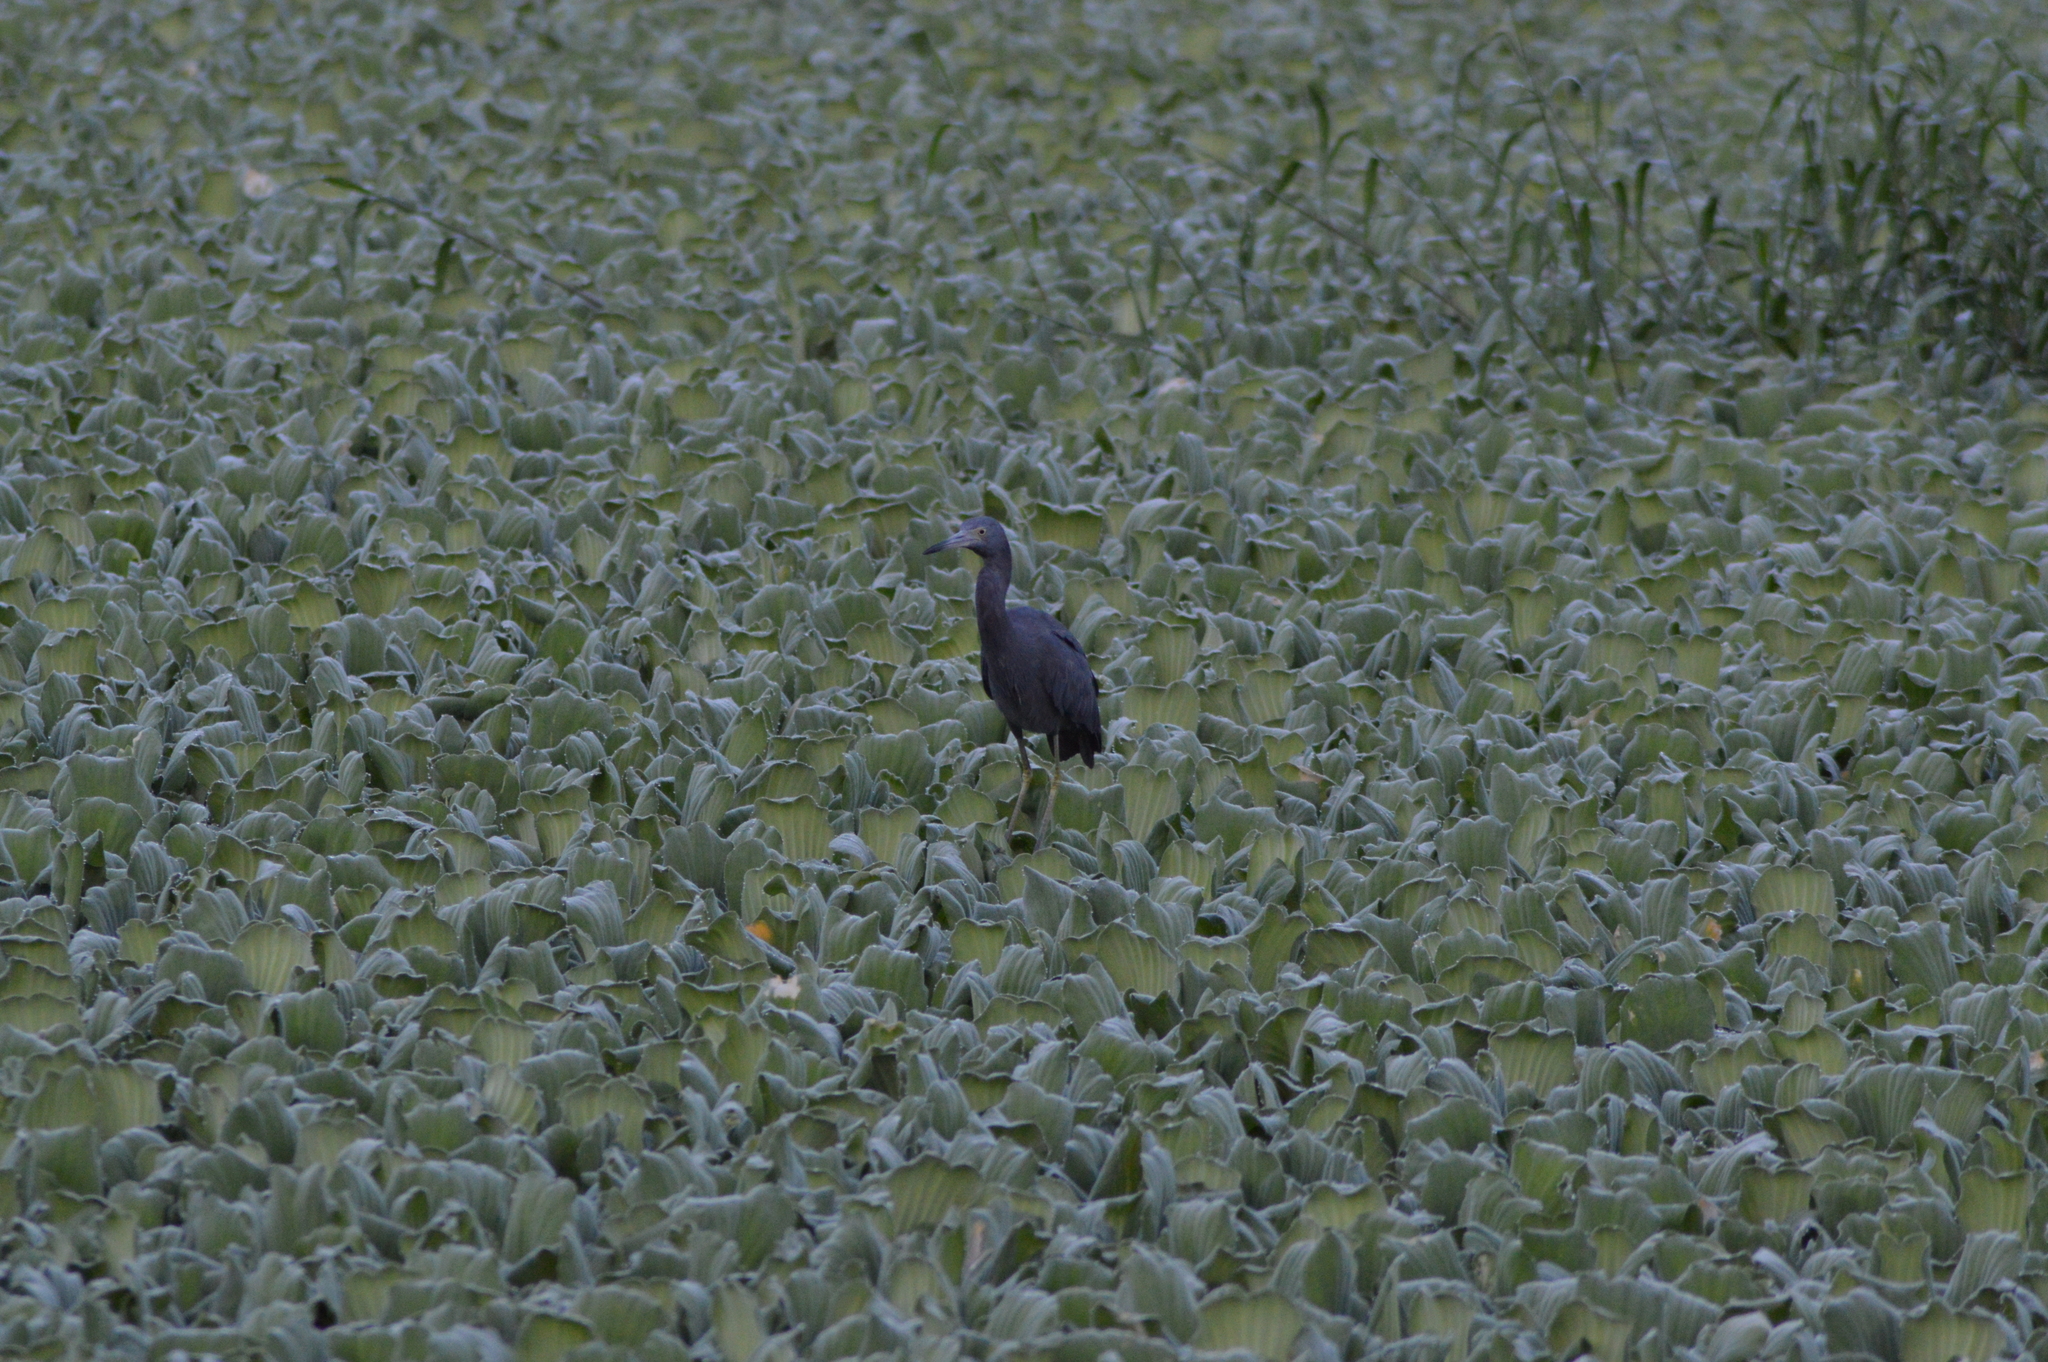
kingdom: Animalia
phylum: Chordata
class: Aves
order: Pelecaniformes
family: Ardeidae
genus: Egretta
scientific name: Egretta caerulea
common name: Little blue heron
